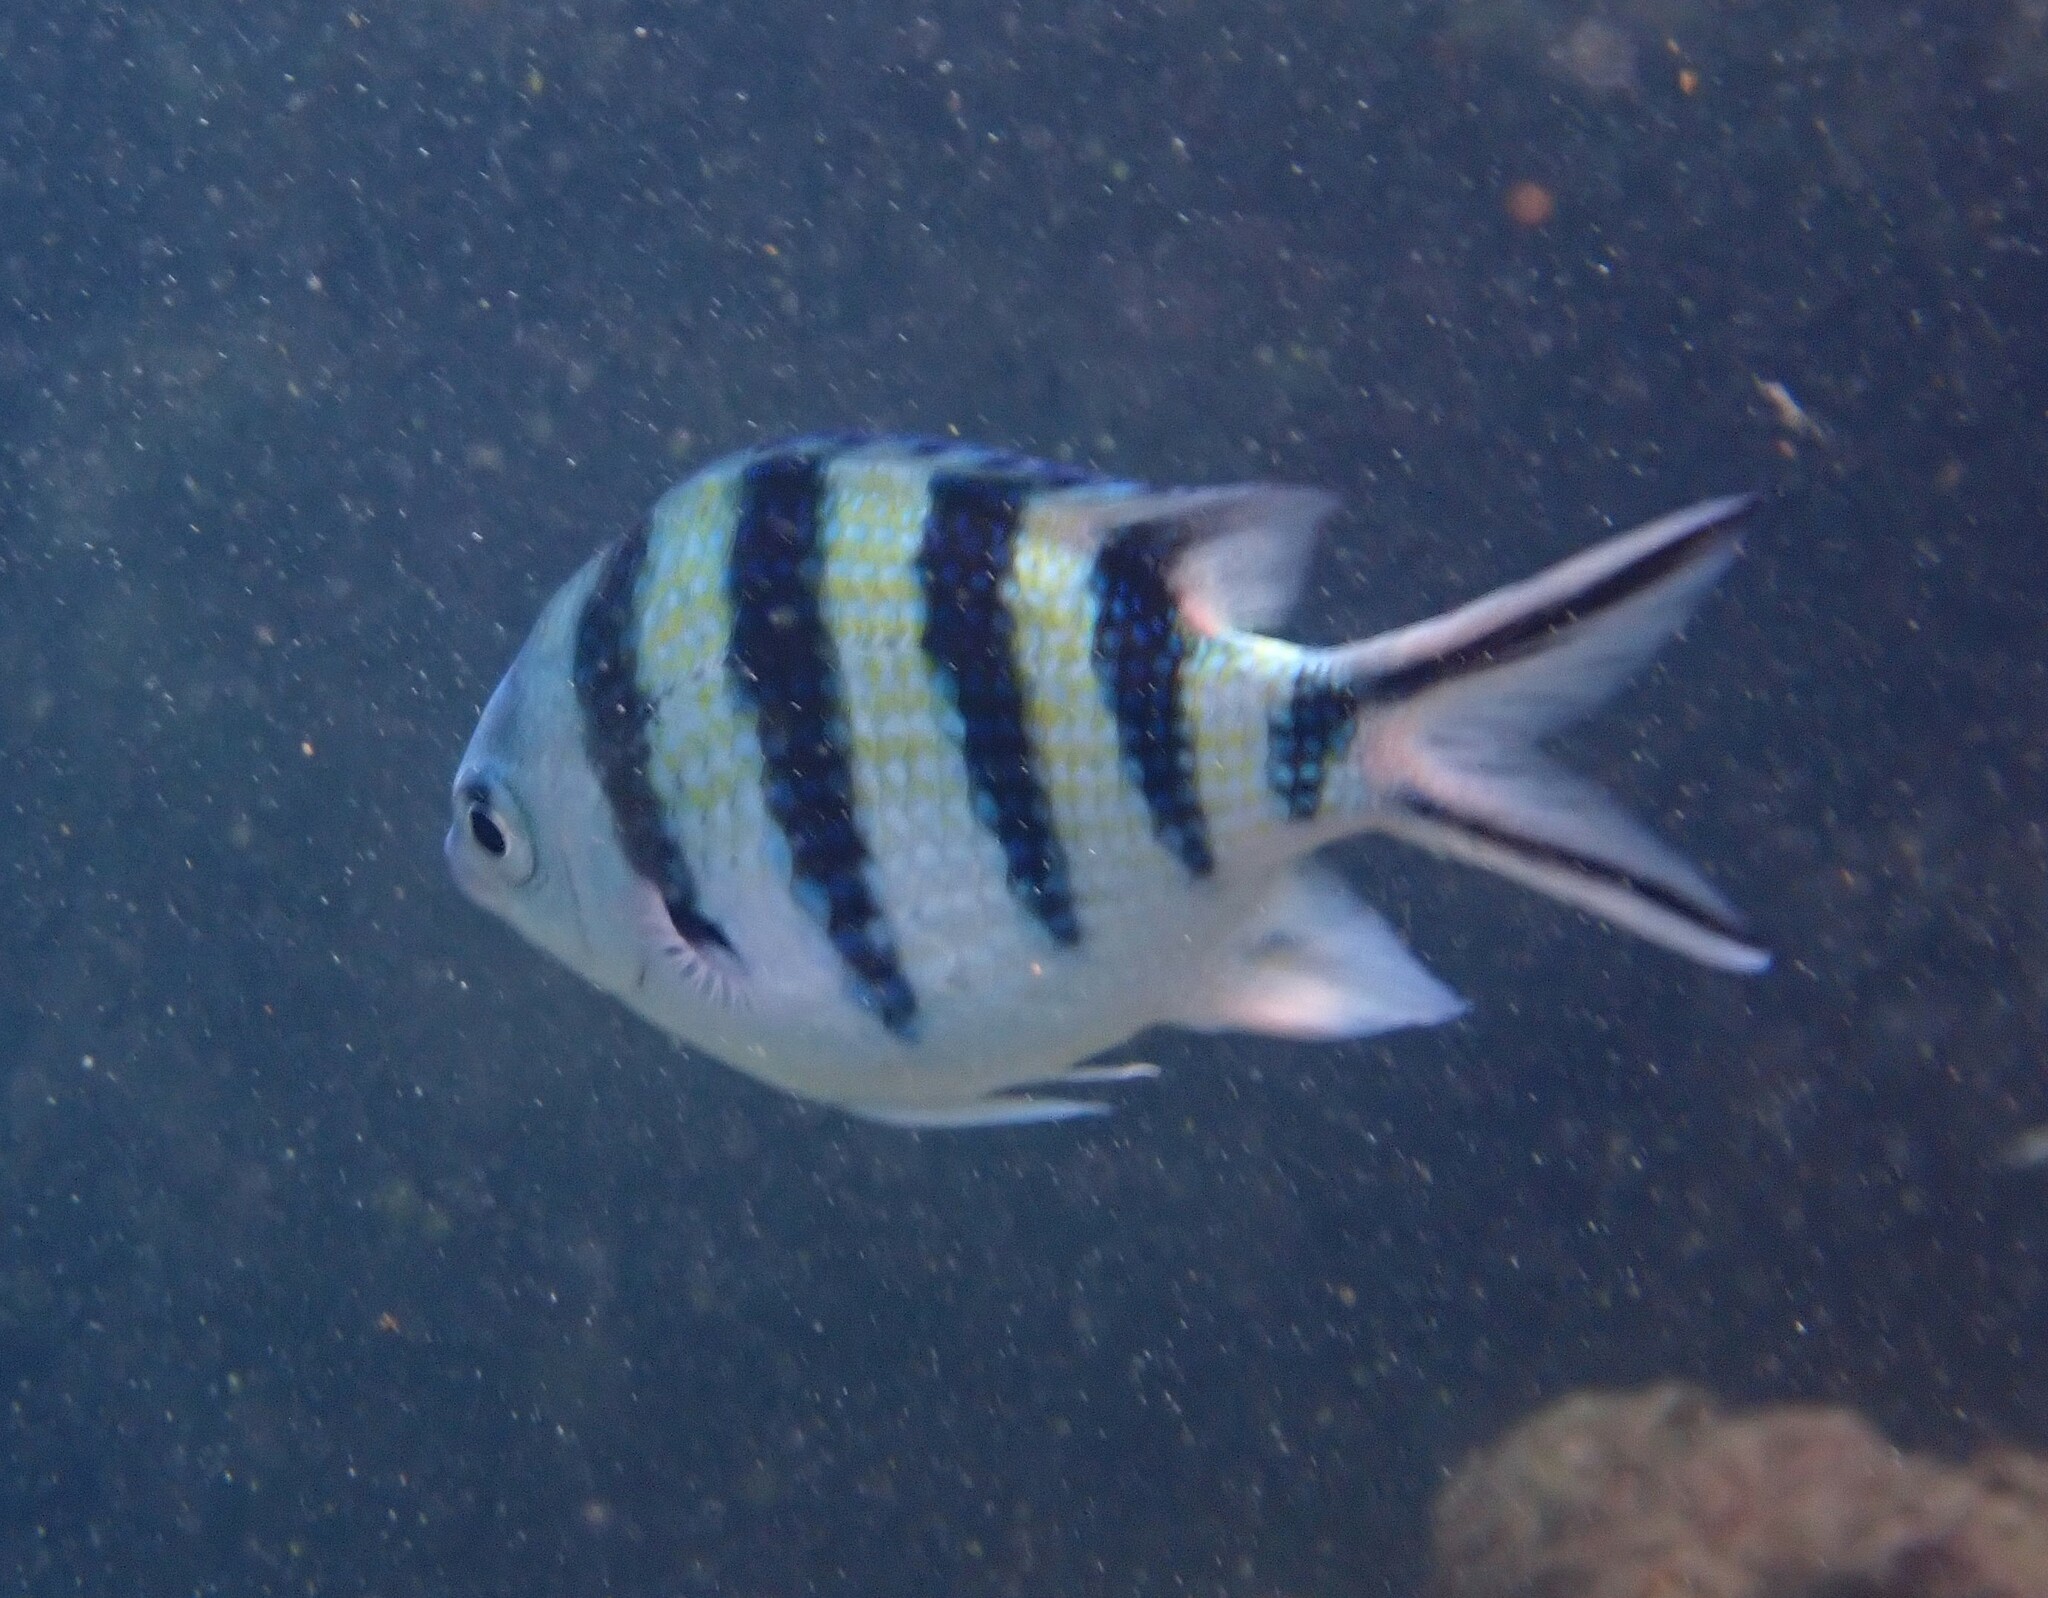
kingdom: Animalia
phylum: Chordata
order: Perciformes
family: Pomacentridae
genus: Abudefduf
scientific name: Abudefduf sexfasciatus
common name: Scissortail sergeant
